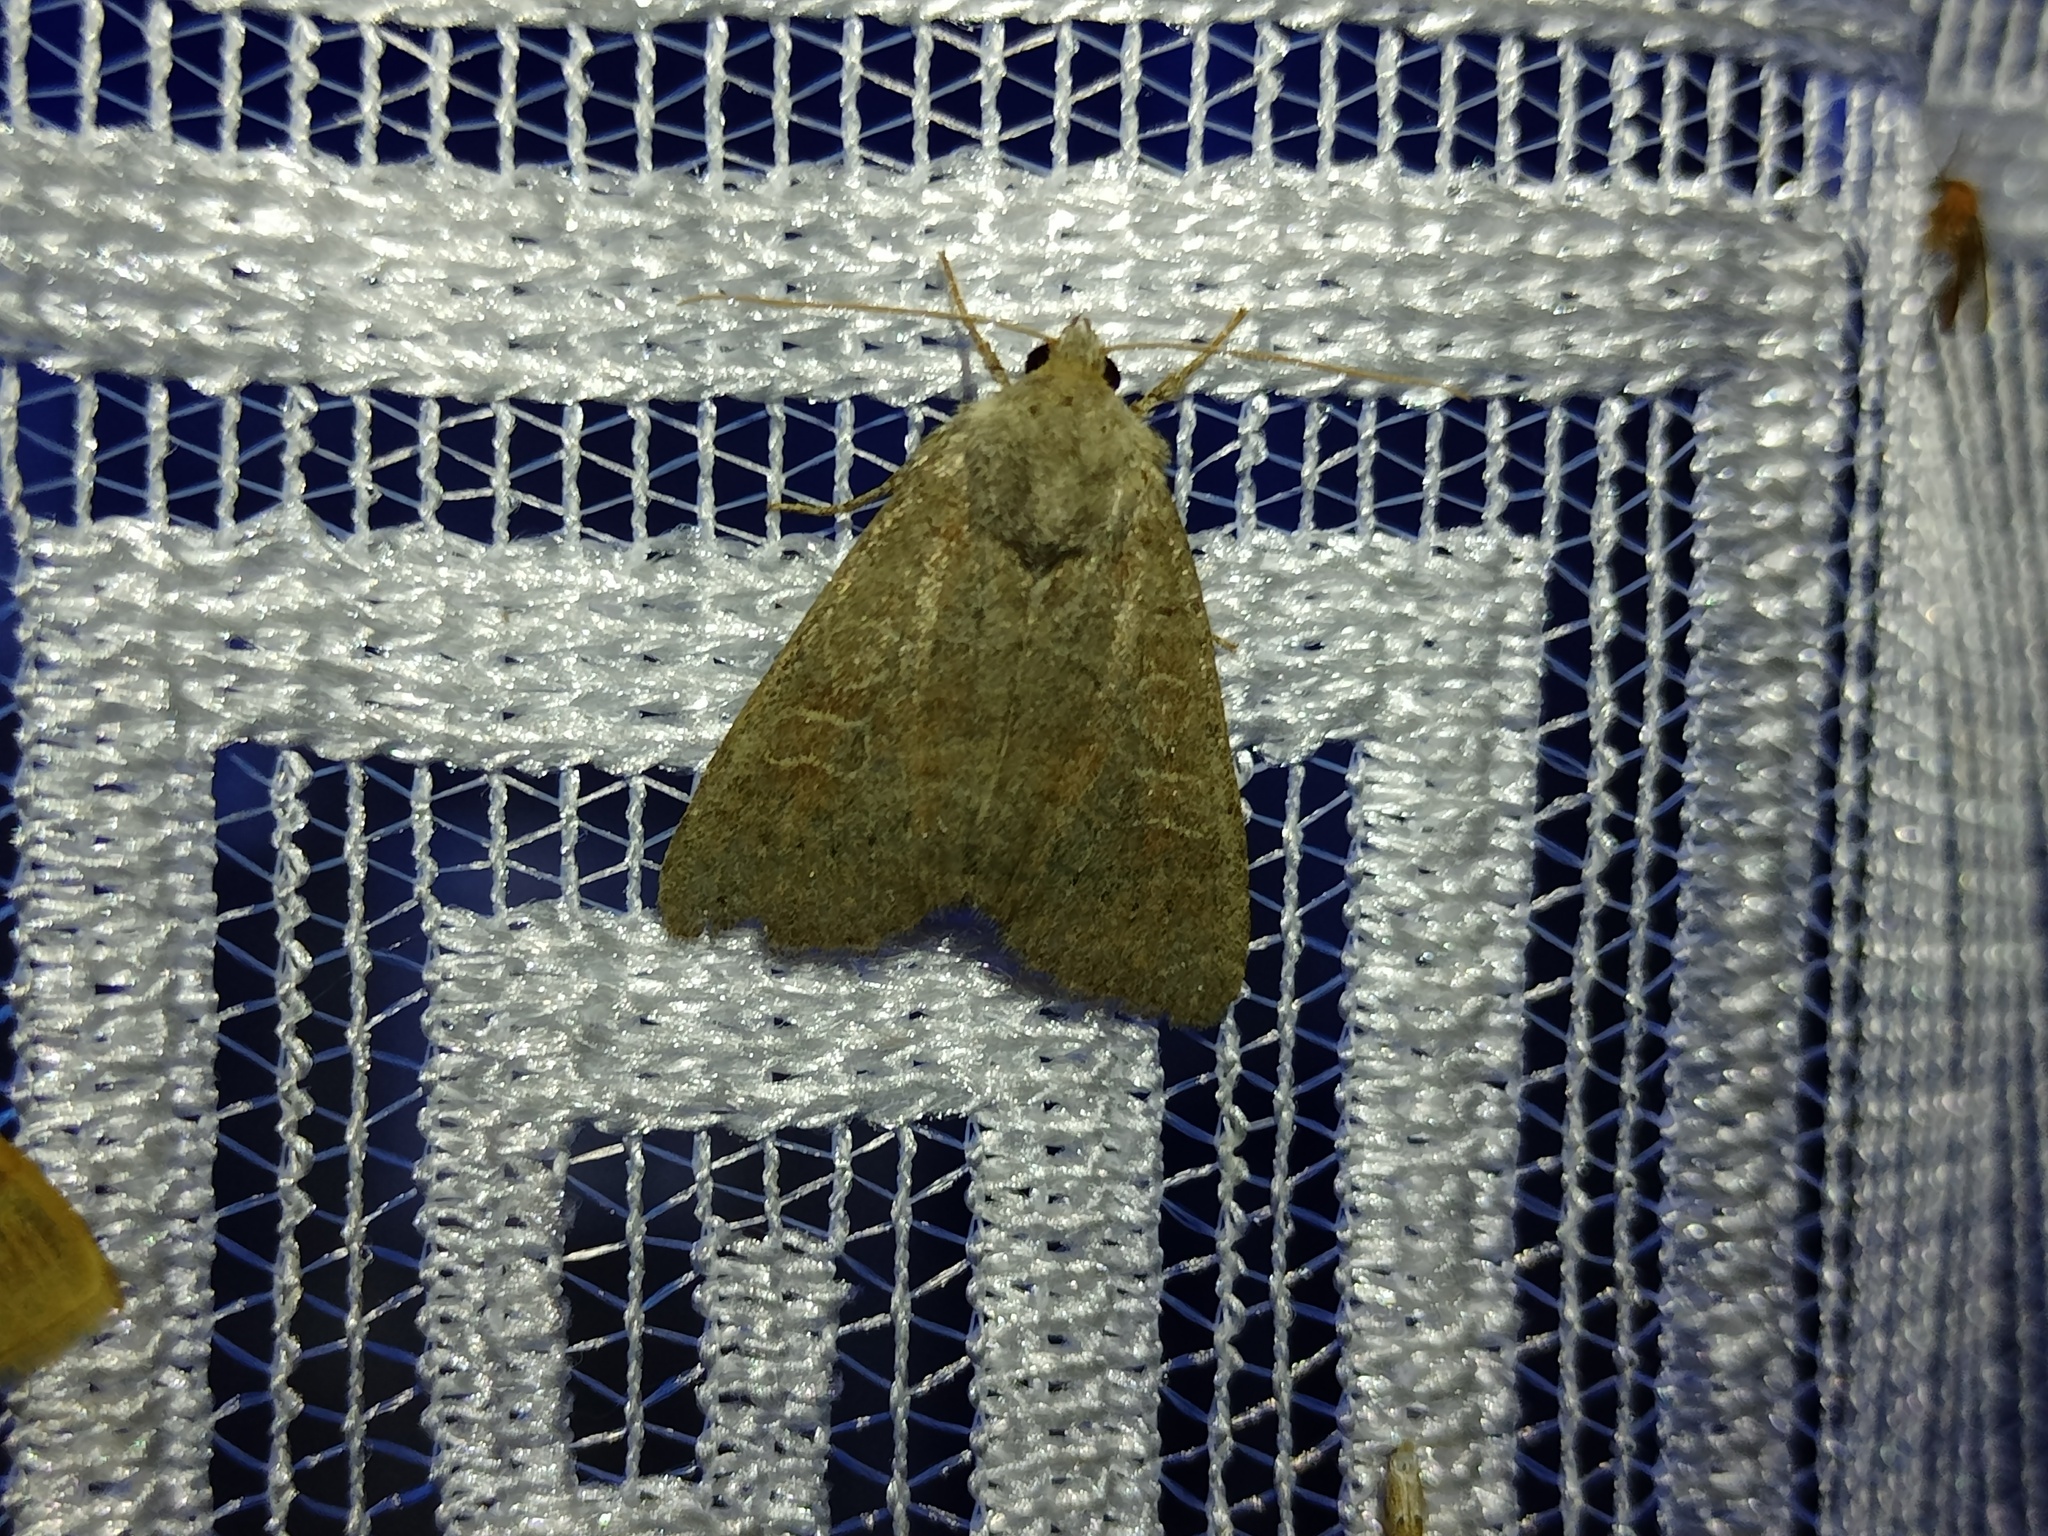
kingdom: Animalia
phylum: Arthropoda
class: Insecta
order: Lepidoptera
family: Noctuidae
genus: Parastichtis
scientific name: Parastichtis suspecta
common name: Suspected
